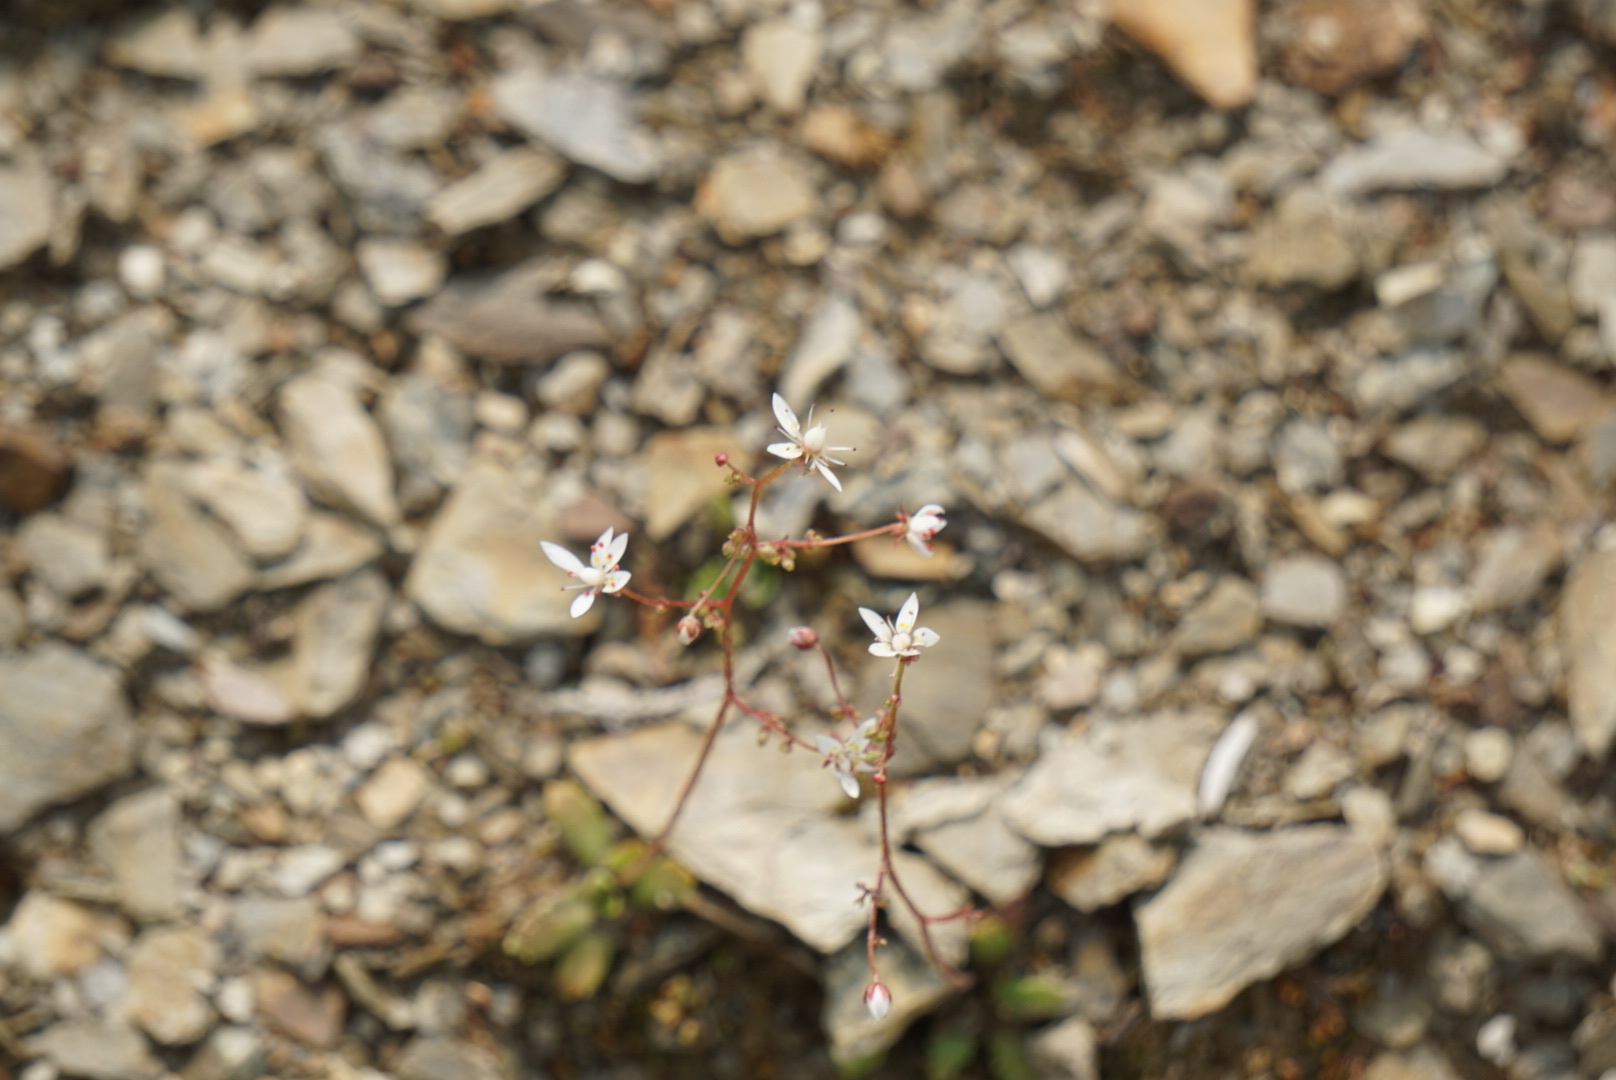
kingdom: Plantae
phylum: Tracheophyta
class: Magnoliopsida
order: Saxifragales
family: Saxifragaceae
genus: Micranthes
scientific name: Micranthes ferruginea
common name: Rusty saxifrage
